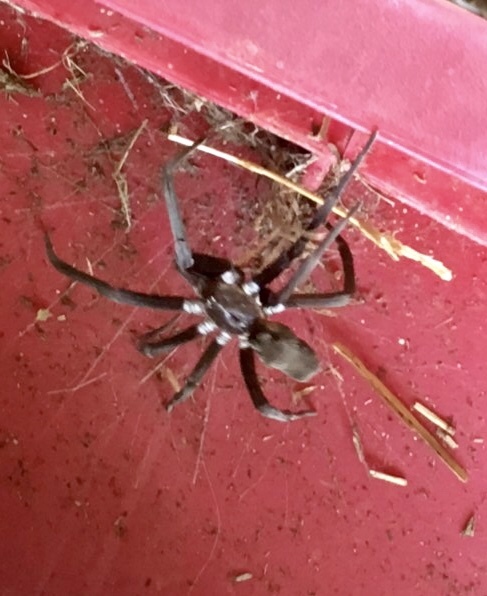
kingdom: Animalia
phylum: Arthropoda
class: Arachnida
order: Araneae
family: Filistatidae
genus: Kukulcania
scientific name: Kukulcania hibernalis
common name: Crevice weaver
